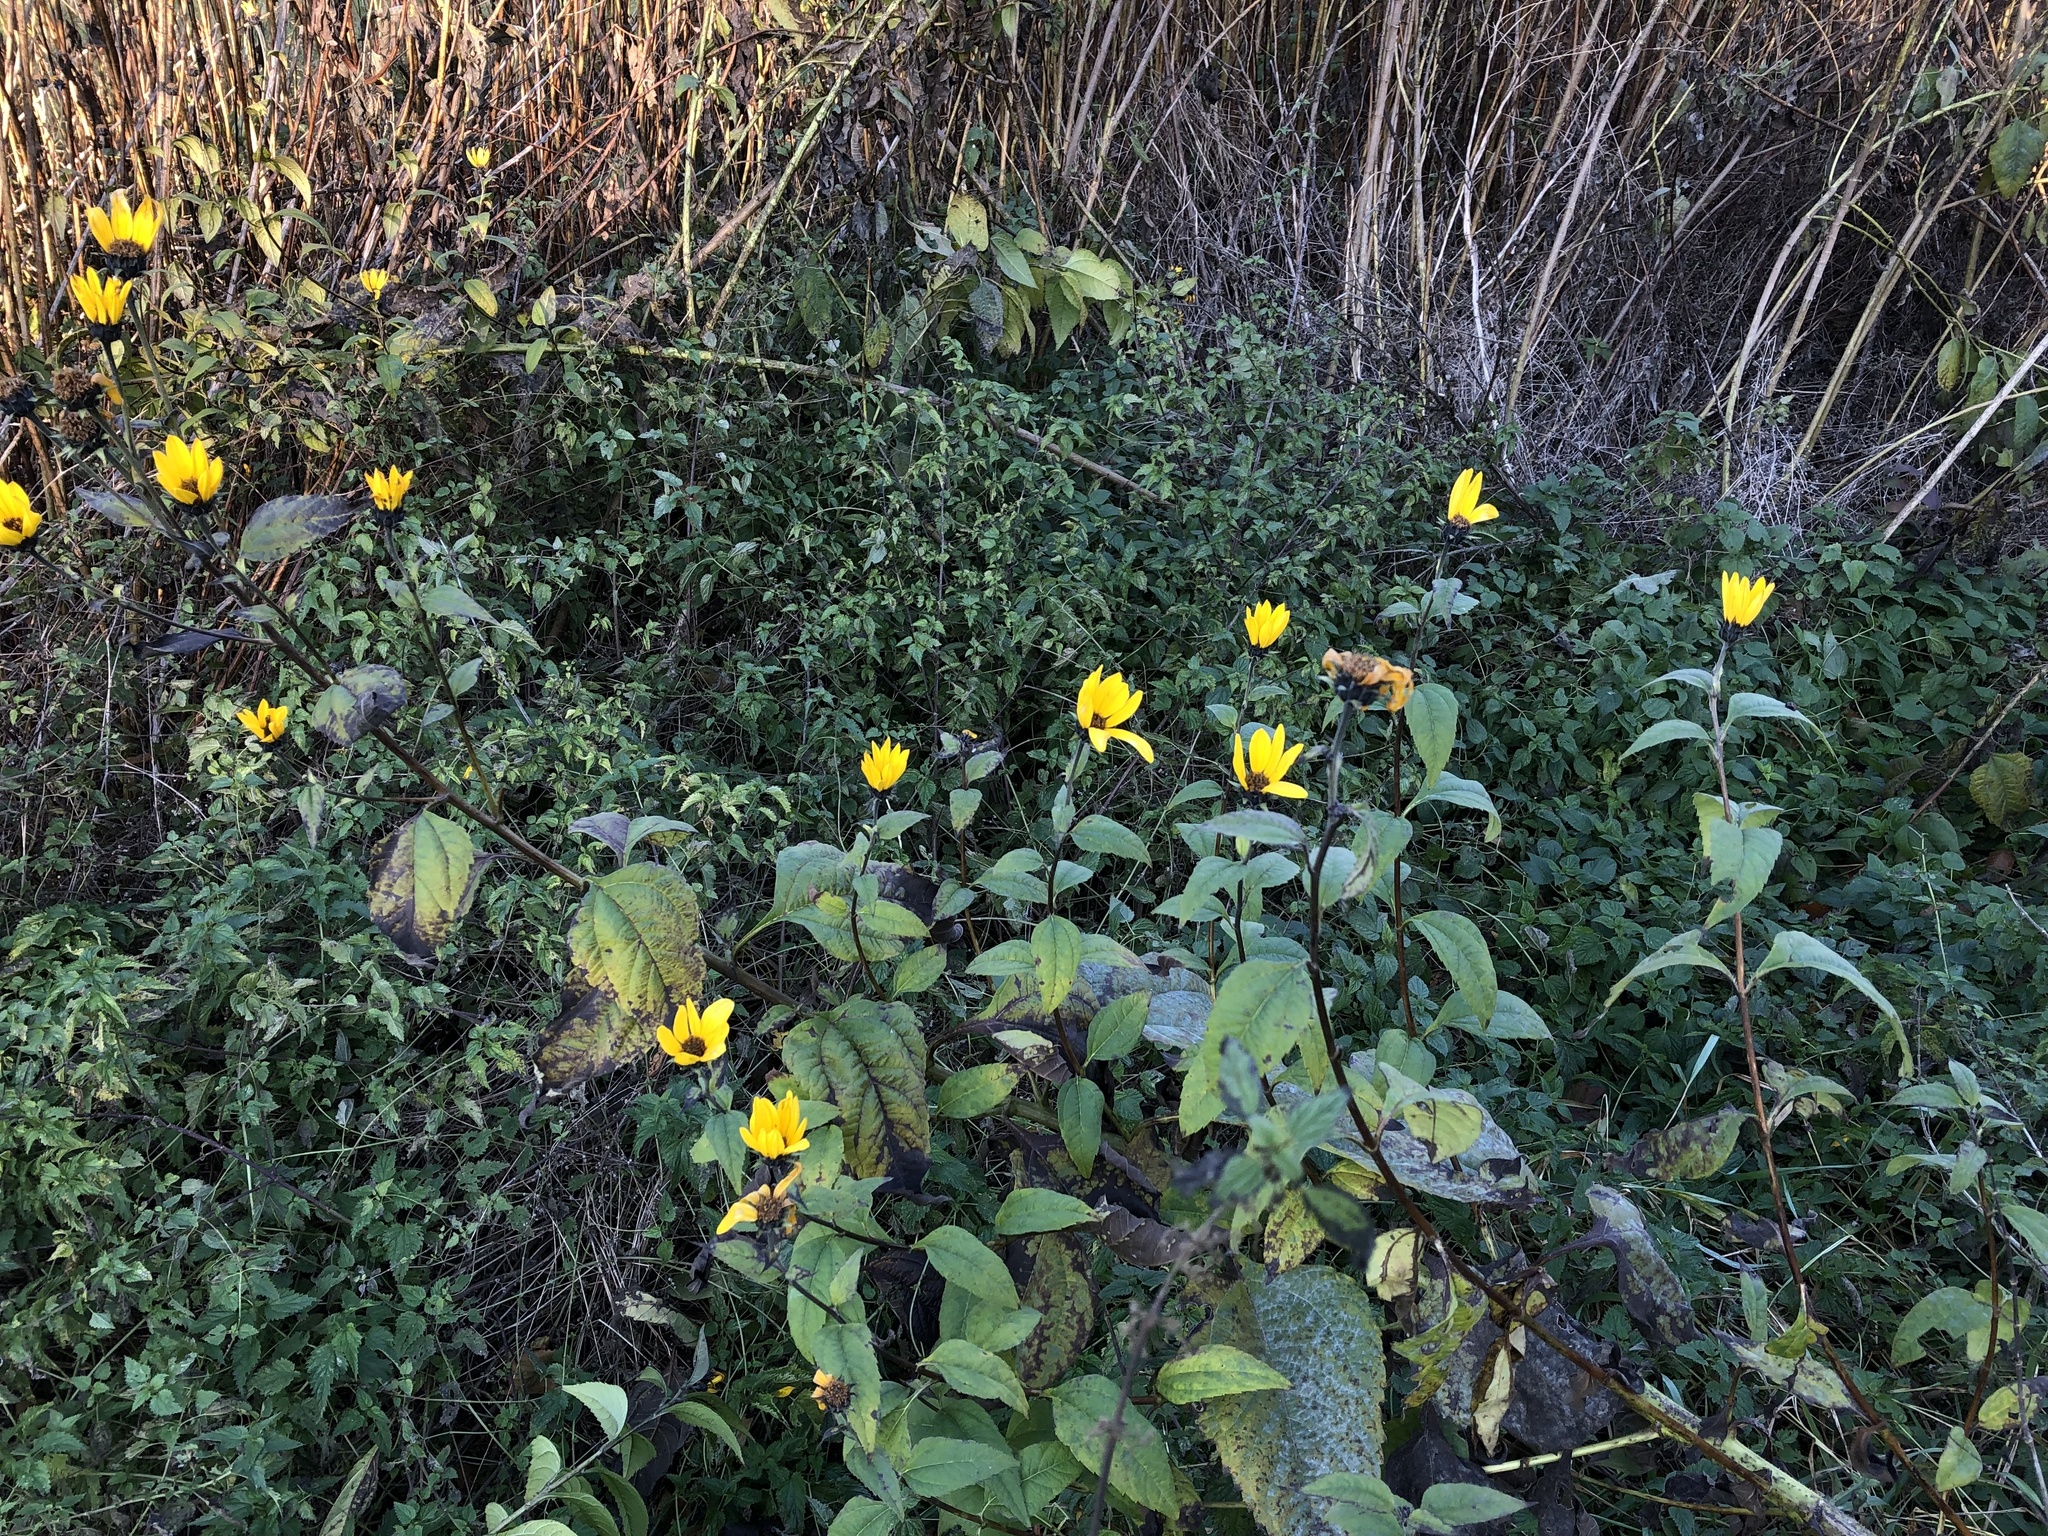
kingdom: Plantae
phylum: Tracheophyta
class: Magnoliopsida
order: Asterales
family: Asteraceae
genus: Helianthus
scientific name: Helianthus tuberosus
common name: Jerusalem artichoke
